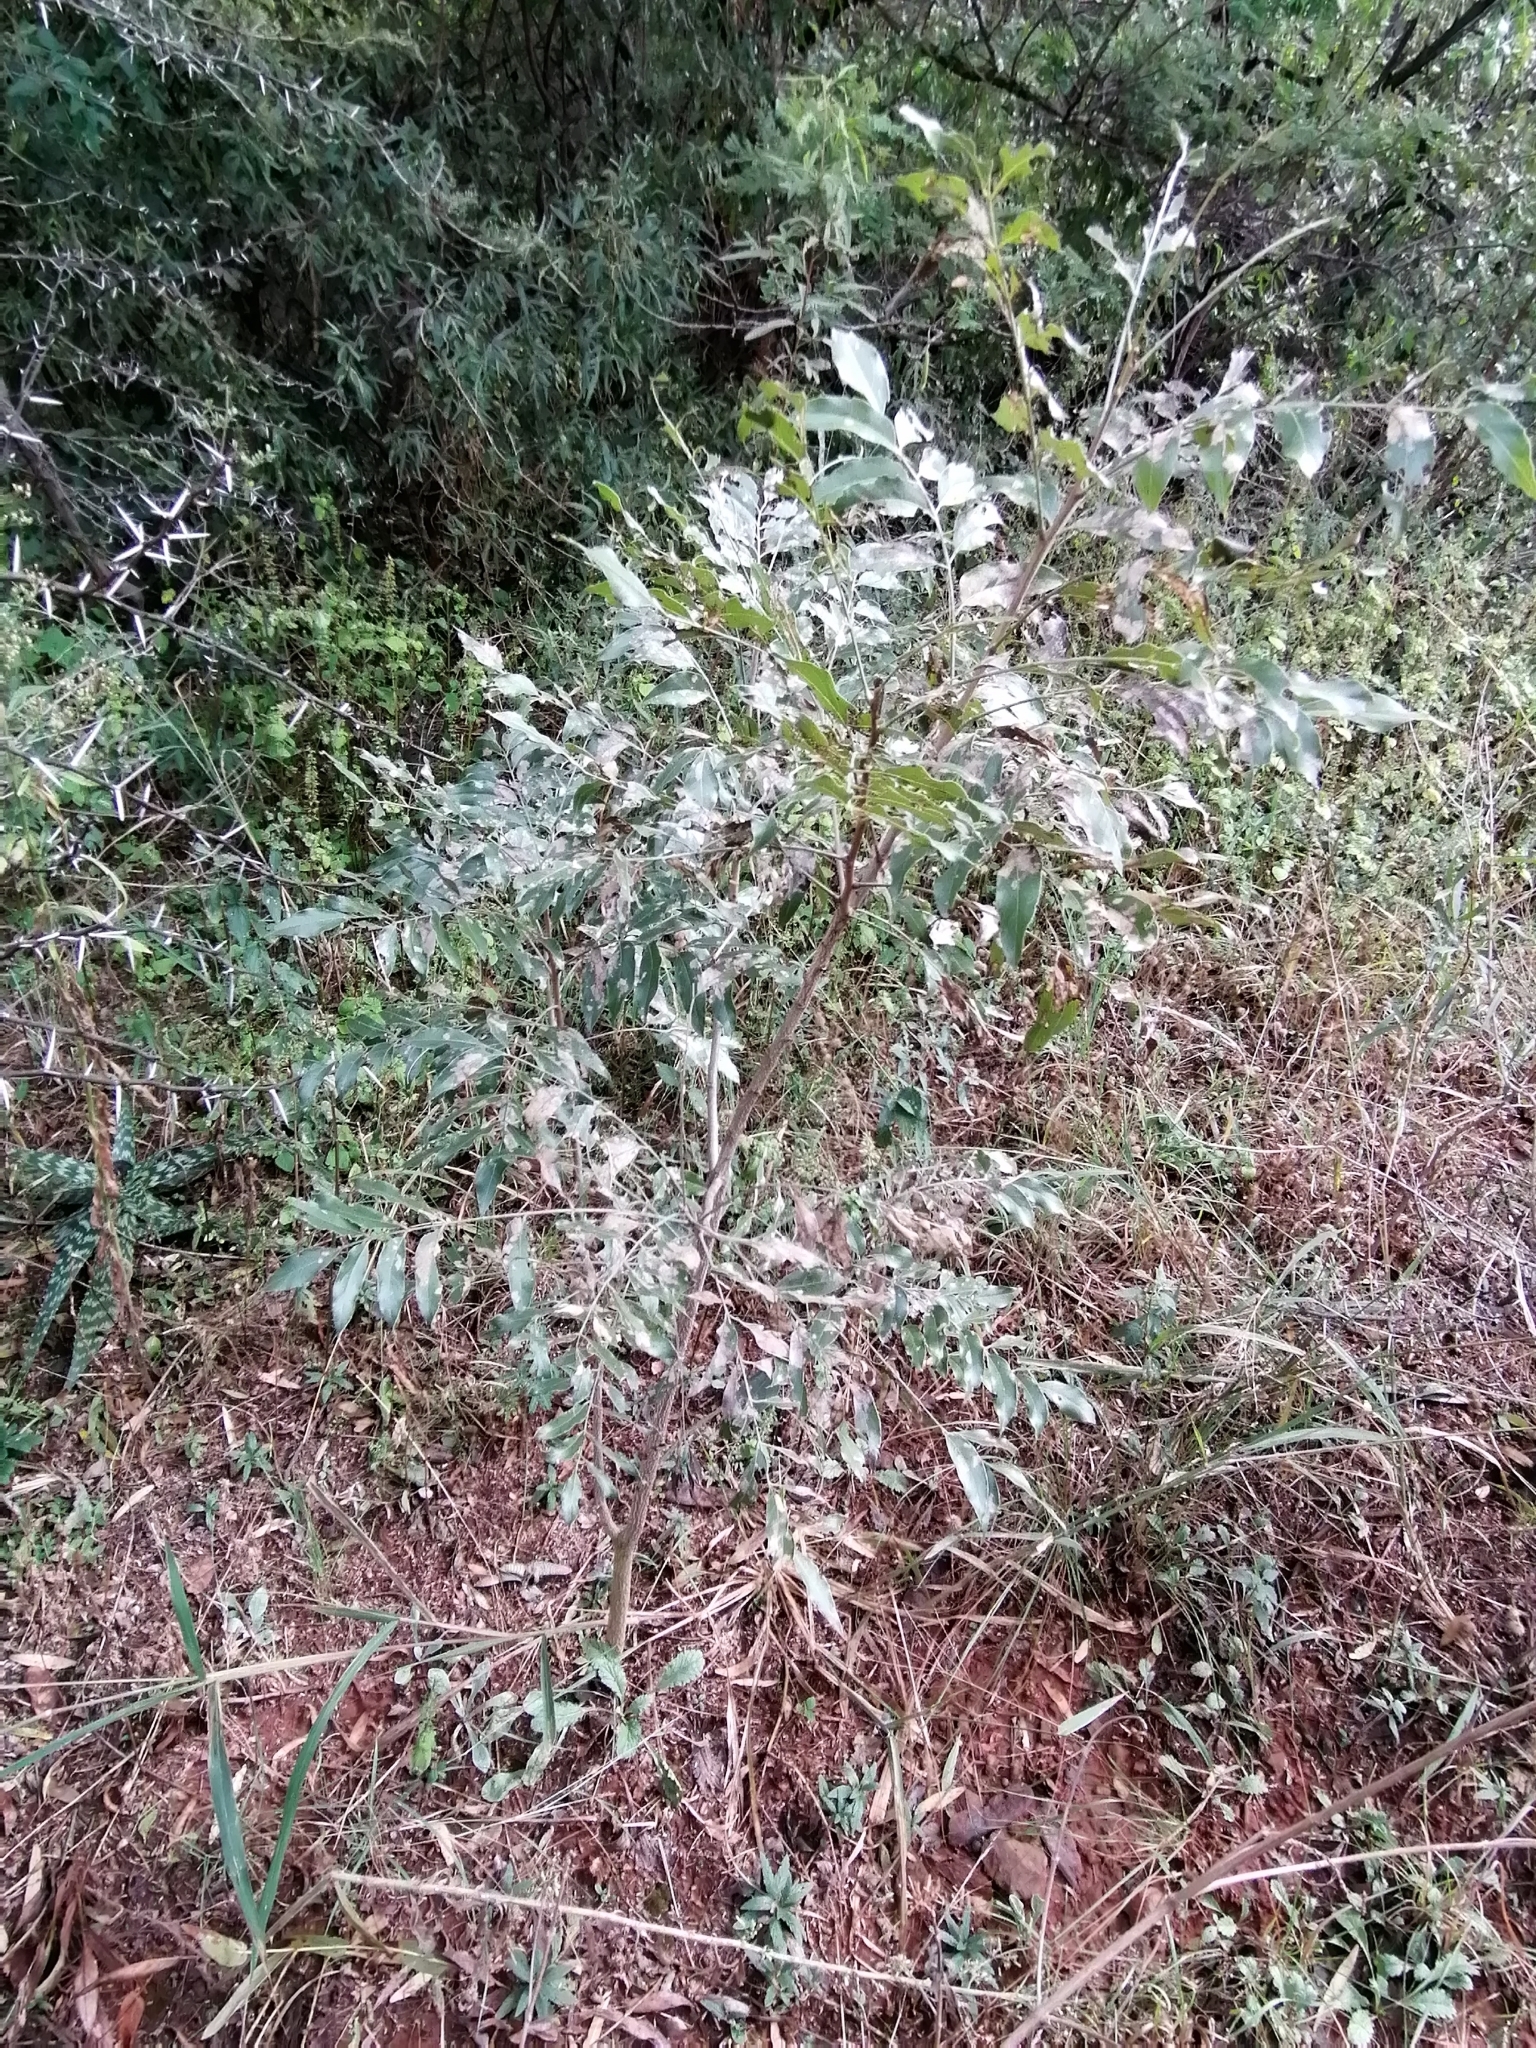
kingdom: Plantae
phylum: Tracheophyta
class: Magnoliopsida
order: Fabales
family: Fabaceae
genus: Bolusanthus
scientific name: Bolusanthus speciosus
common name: Tree wisteria
